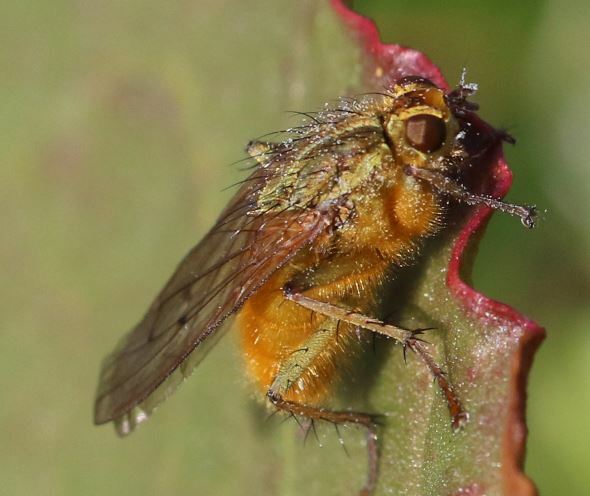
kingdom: Animalia
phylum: Arthropoda
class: Insecta
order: Diptera
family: Scathophagidae
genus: Scathophaga
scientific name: Scathophaga stercoraria
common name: Yellow dung fly
